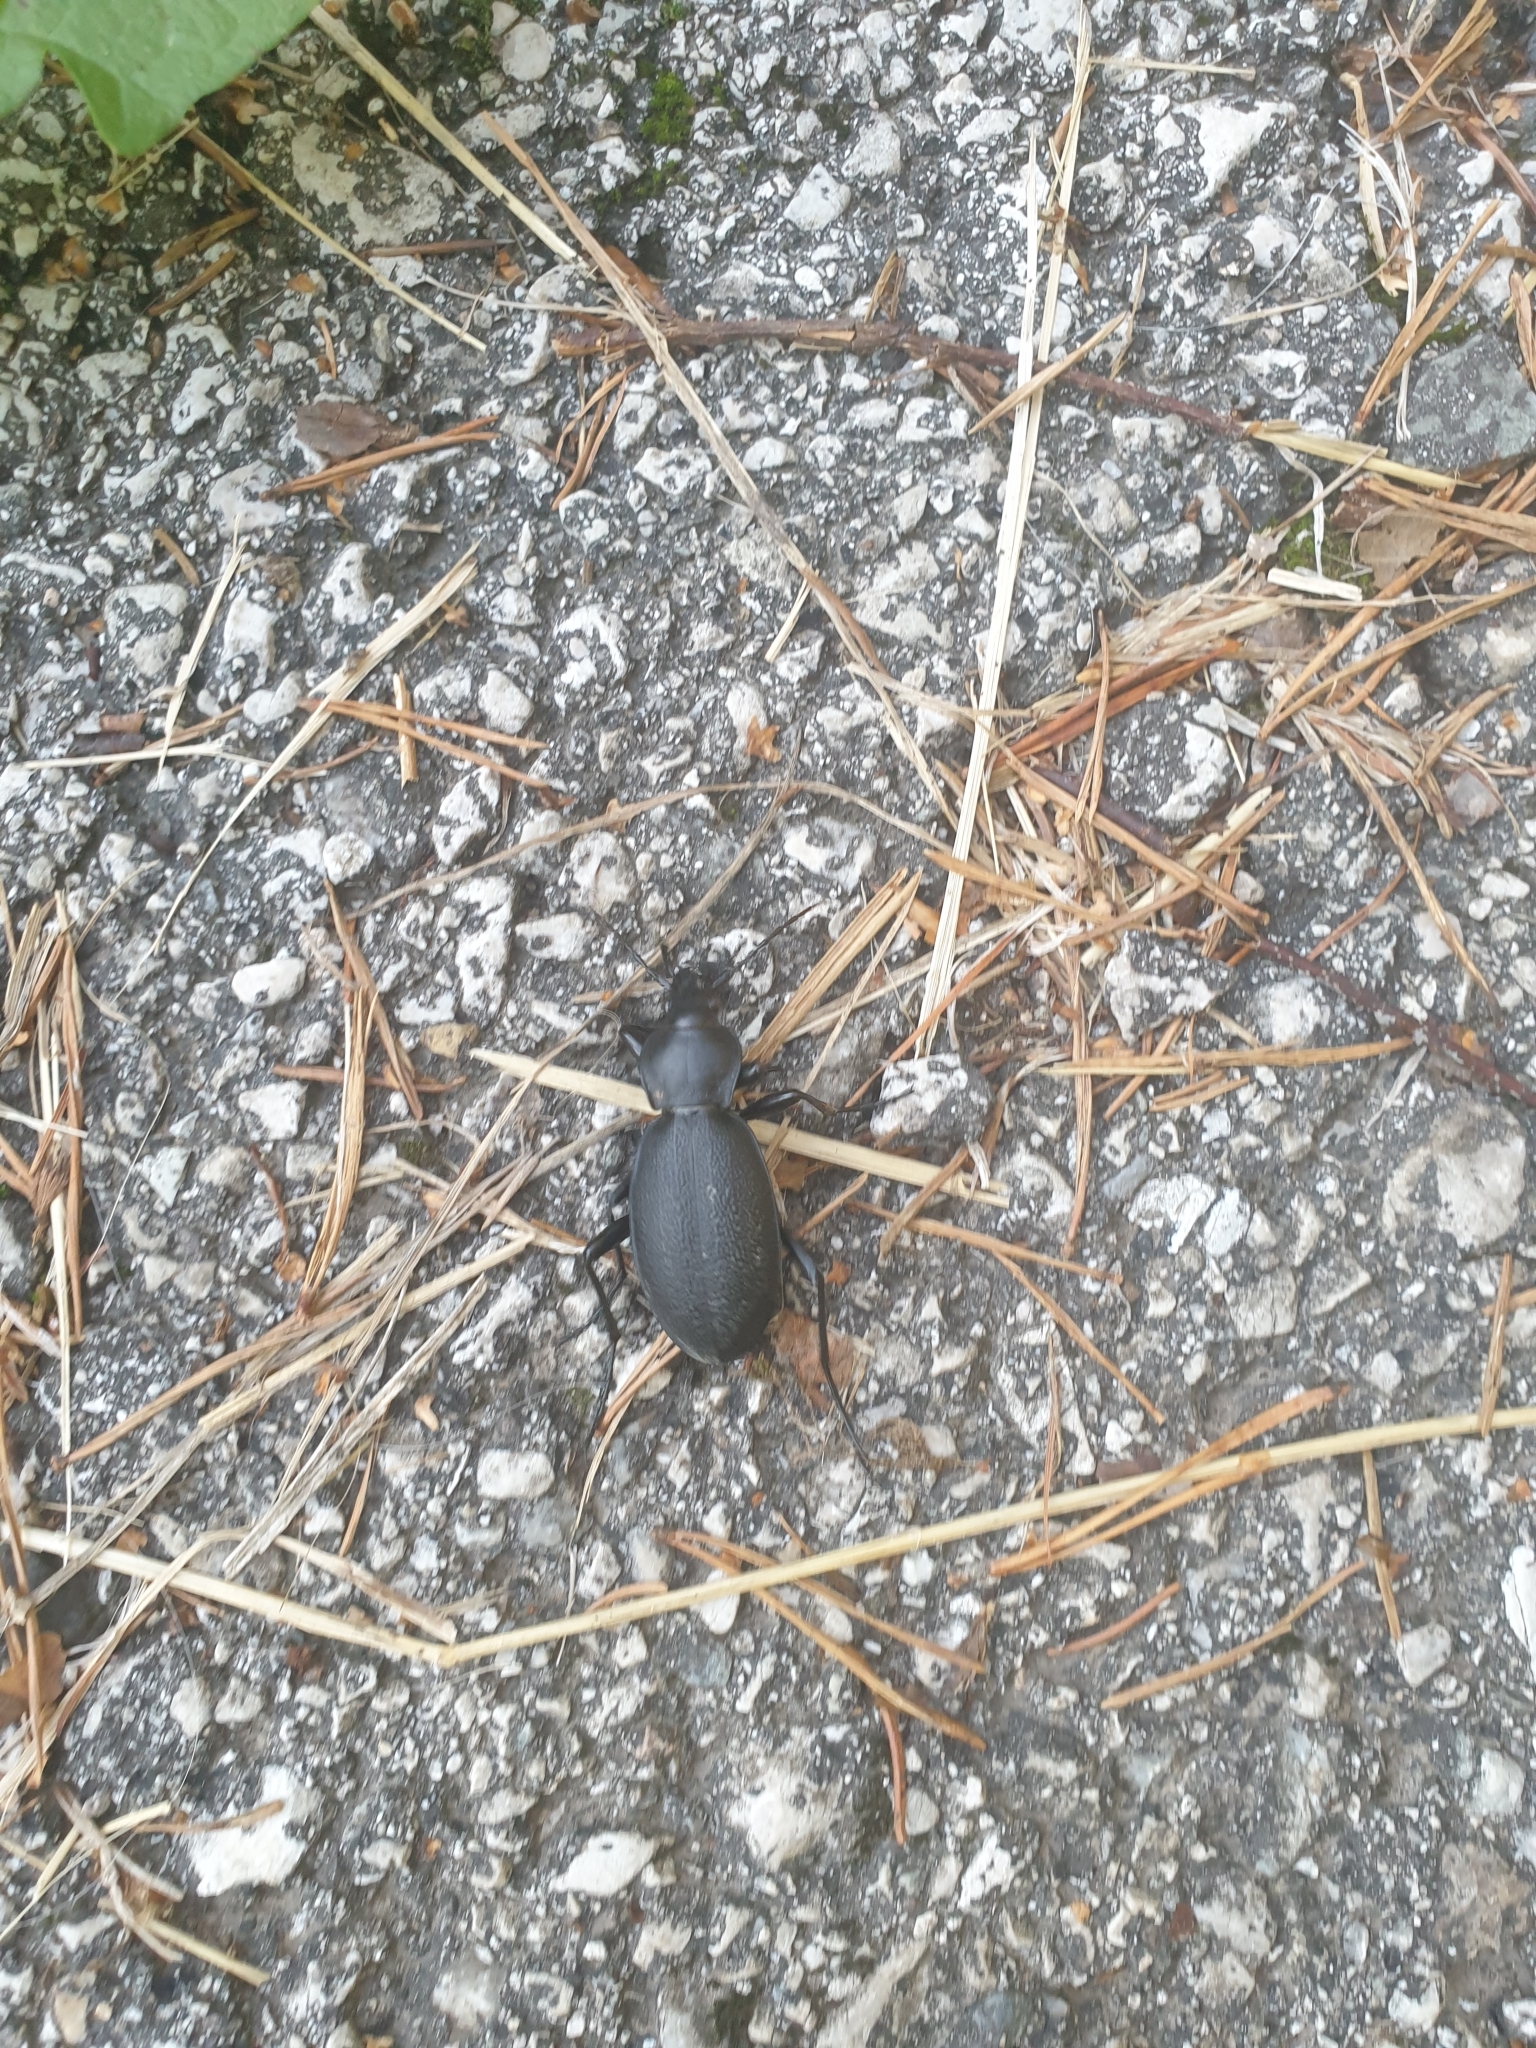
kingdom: Animalia
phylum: Arthropoda
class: Insecta
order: Coleoptera
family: Carabidae
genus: Carabus
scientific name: Carabus coriaceus
